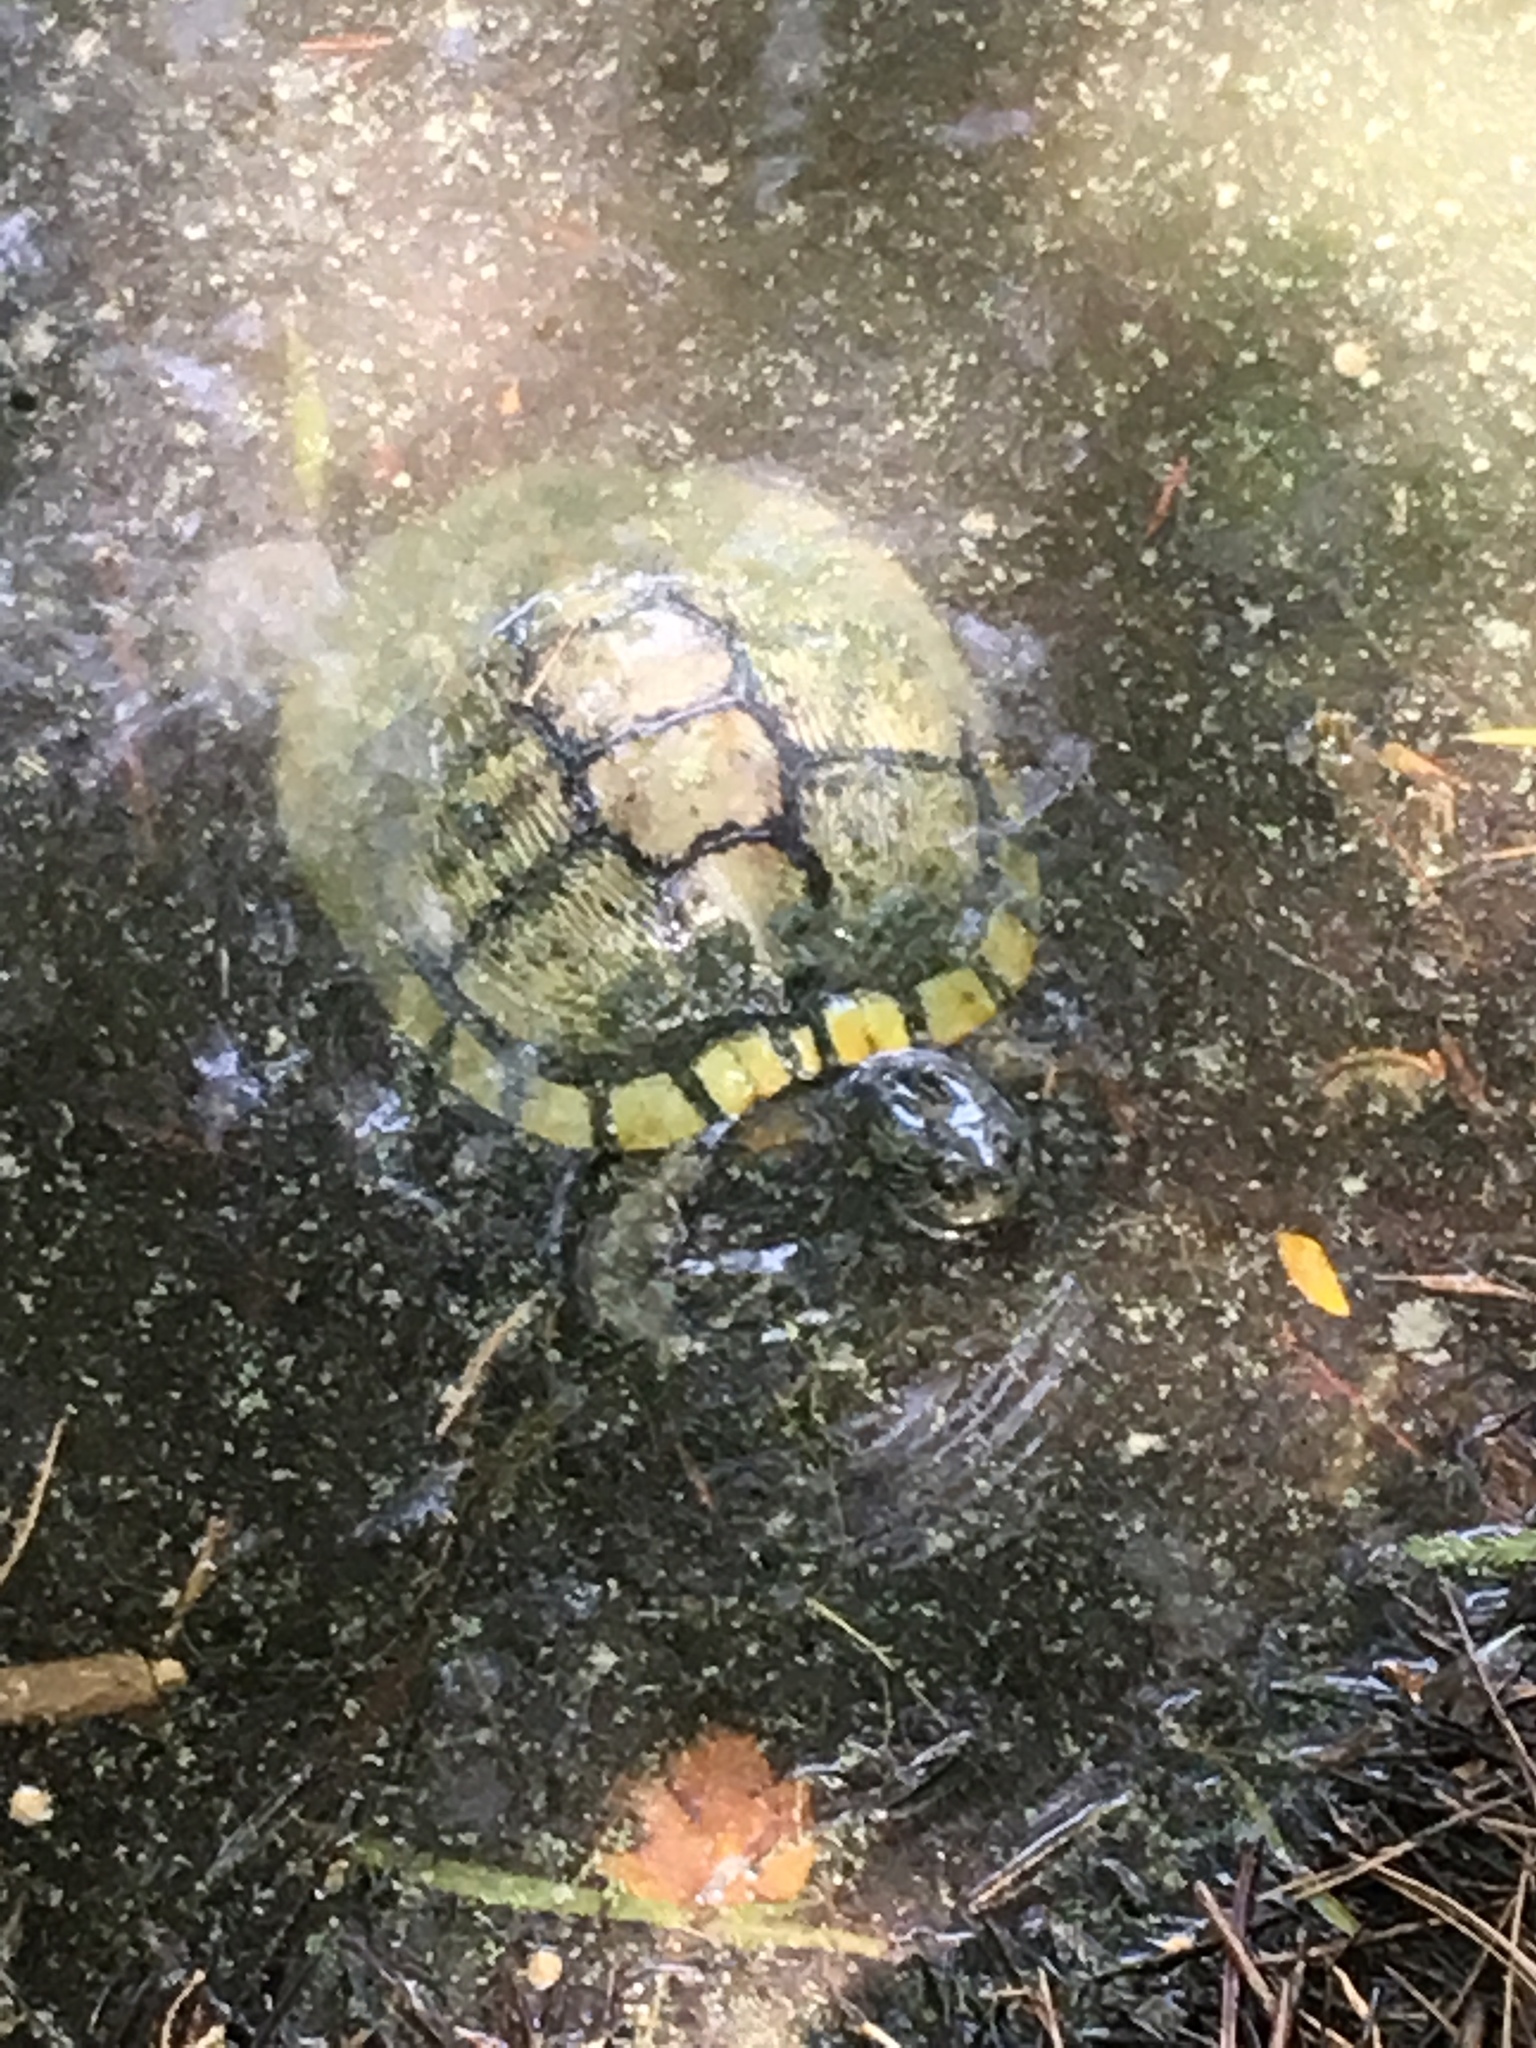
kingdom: Animalia
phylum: Chordata
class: Testudines
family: Emydidae
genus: Trachemys
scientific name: Trachemys scripta
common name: Slider
